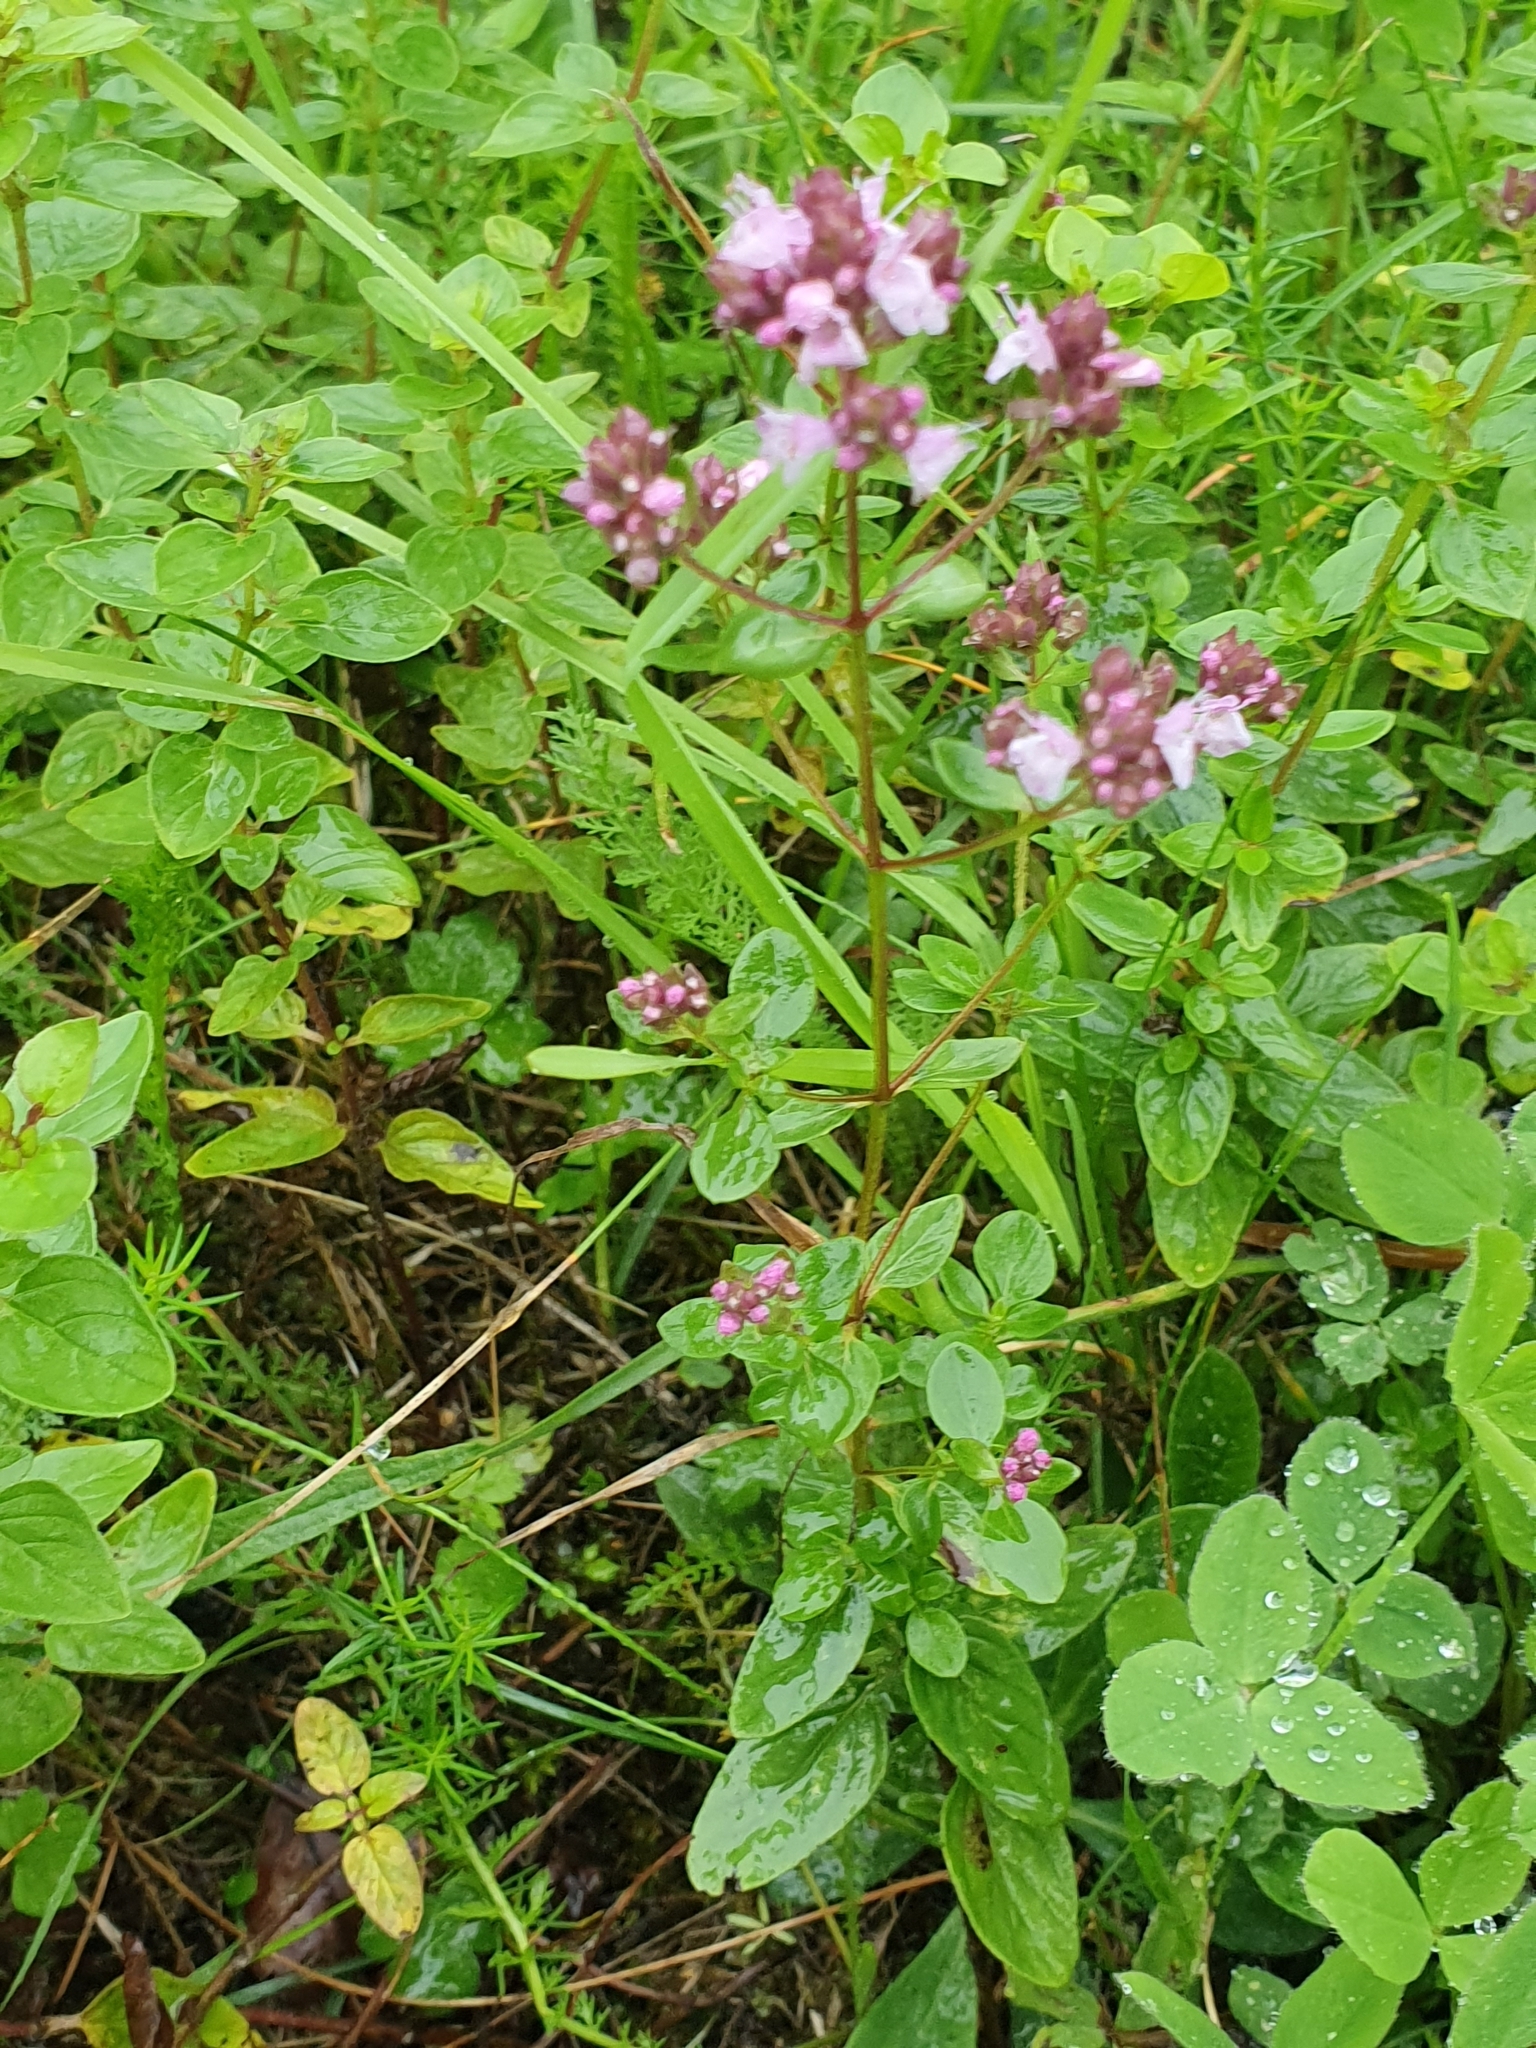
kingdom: Plantae
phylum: Tracheophyta
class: Magnoliopsida
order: Lamiales
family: Lamiaceae
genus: Origanum
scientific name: Origanum vulgare
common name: Wild marjoram
